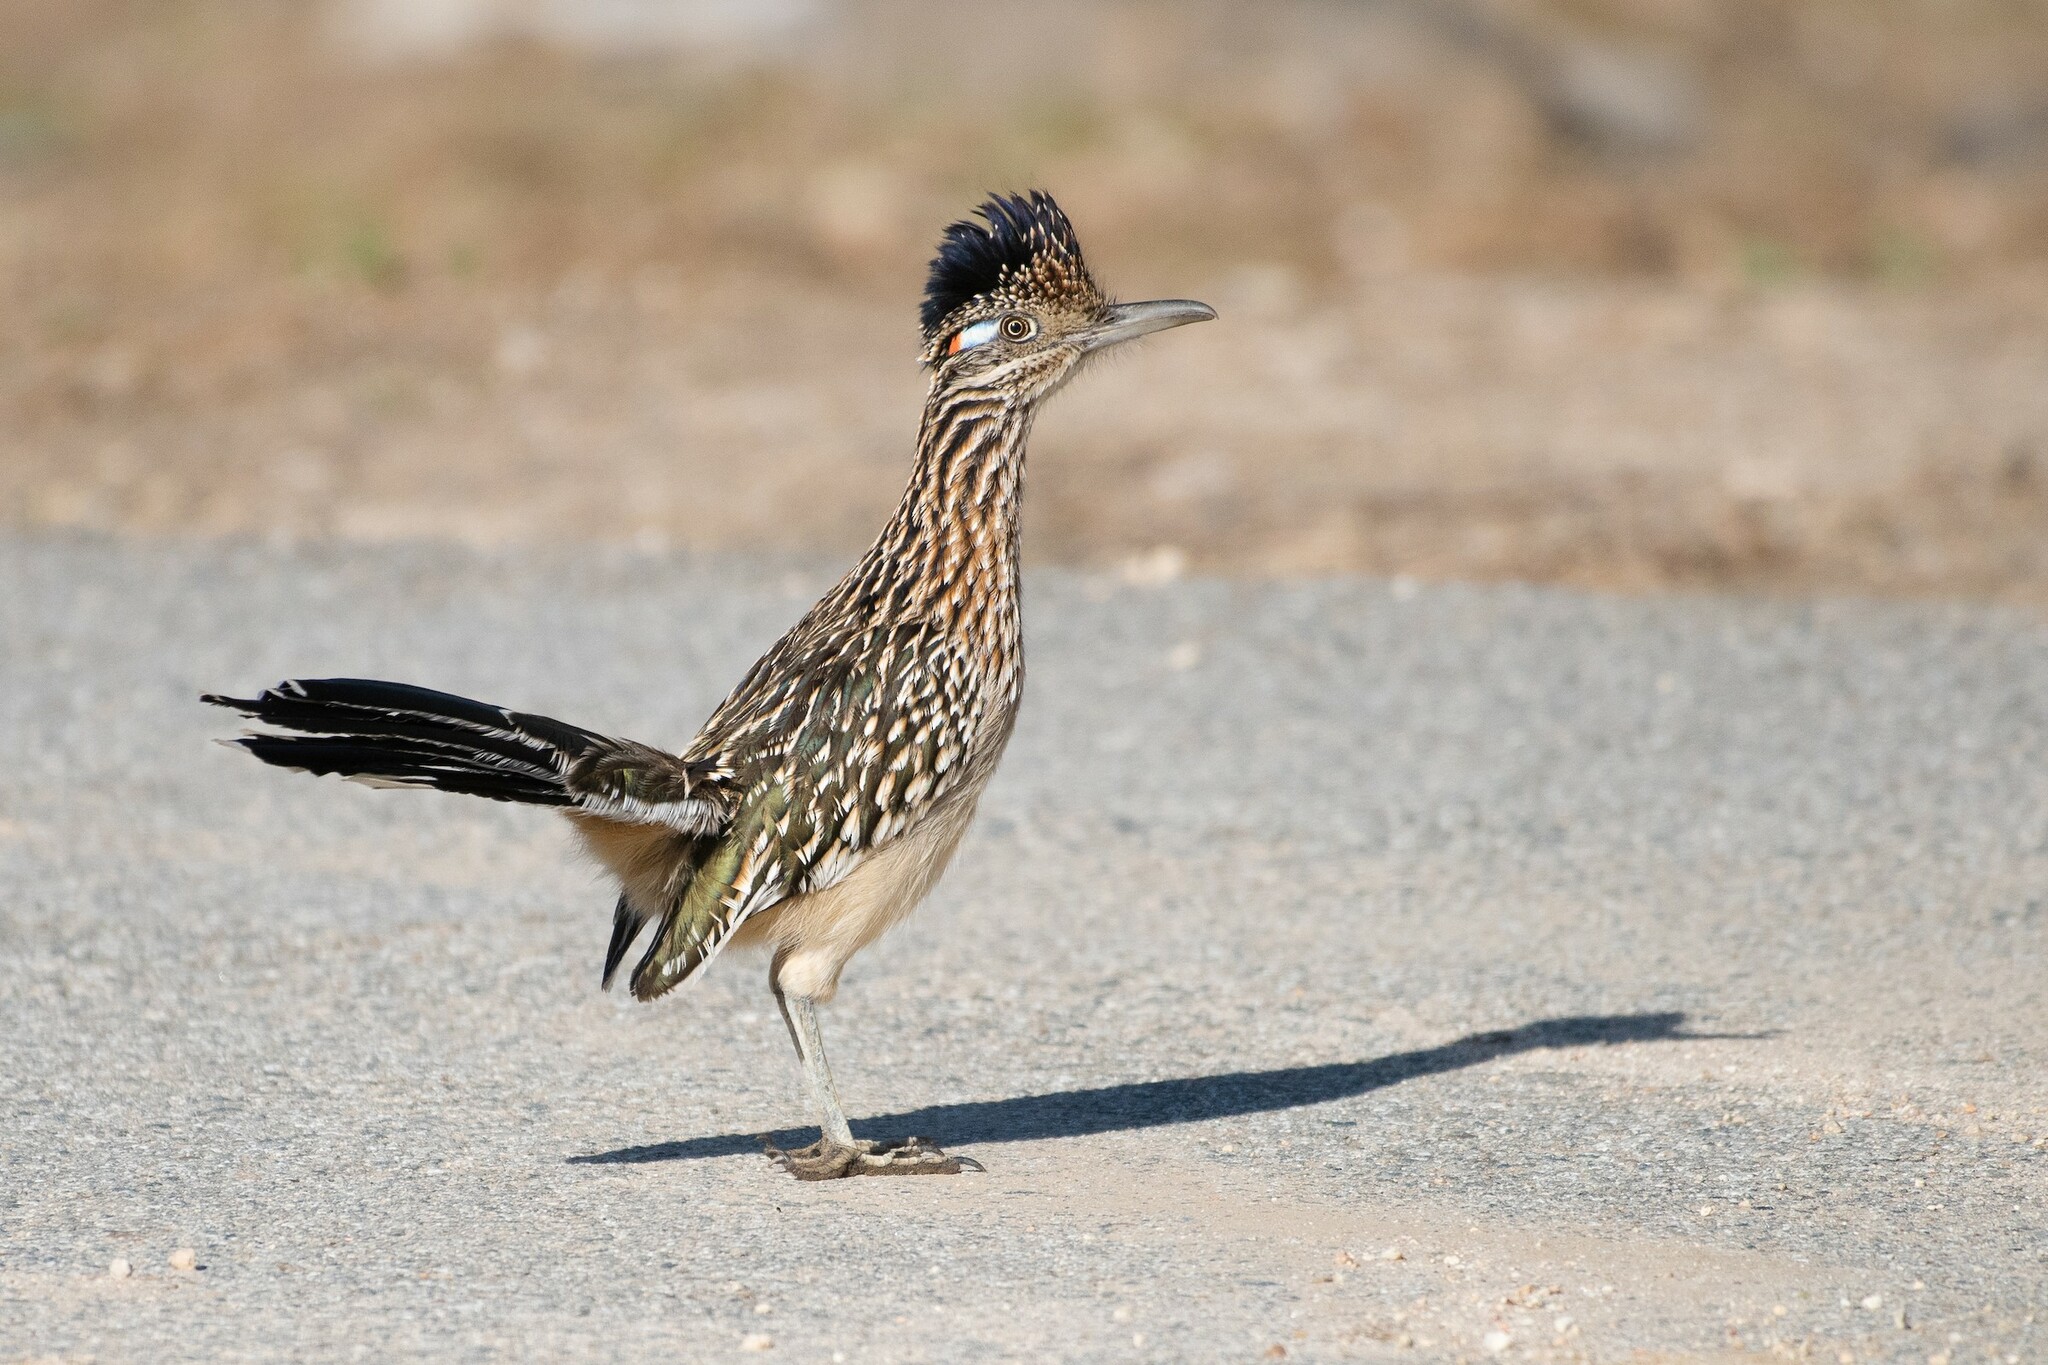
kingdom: Animalia
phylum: Chordata
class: Aves
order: Cuculiformes
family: Cuculidae
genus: Geococcyx
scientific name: Geococcyx californianus
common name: Greater roadrunner
